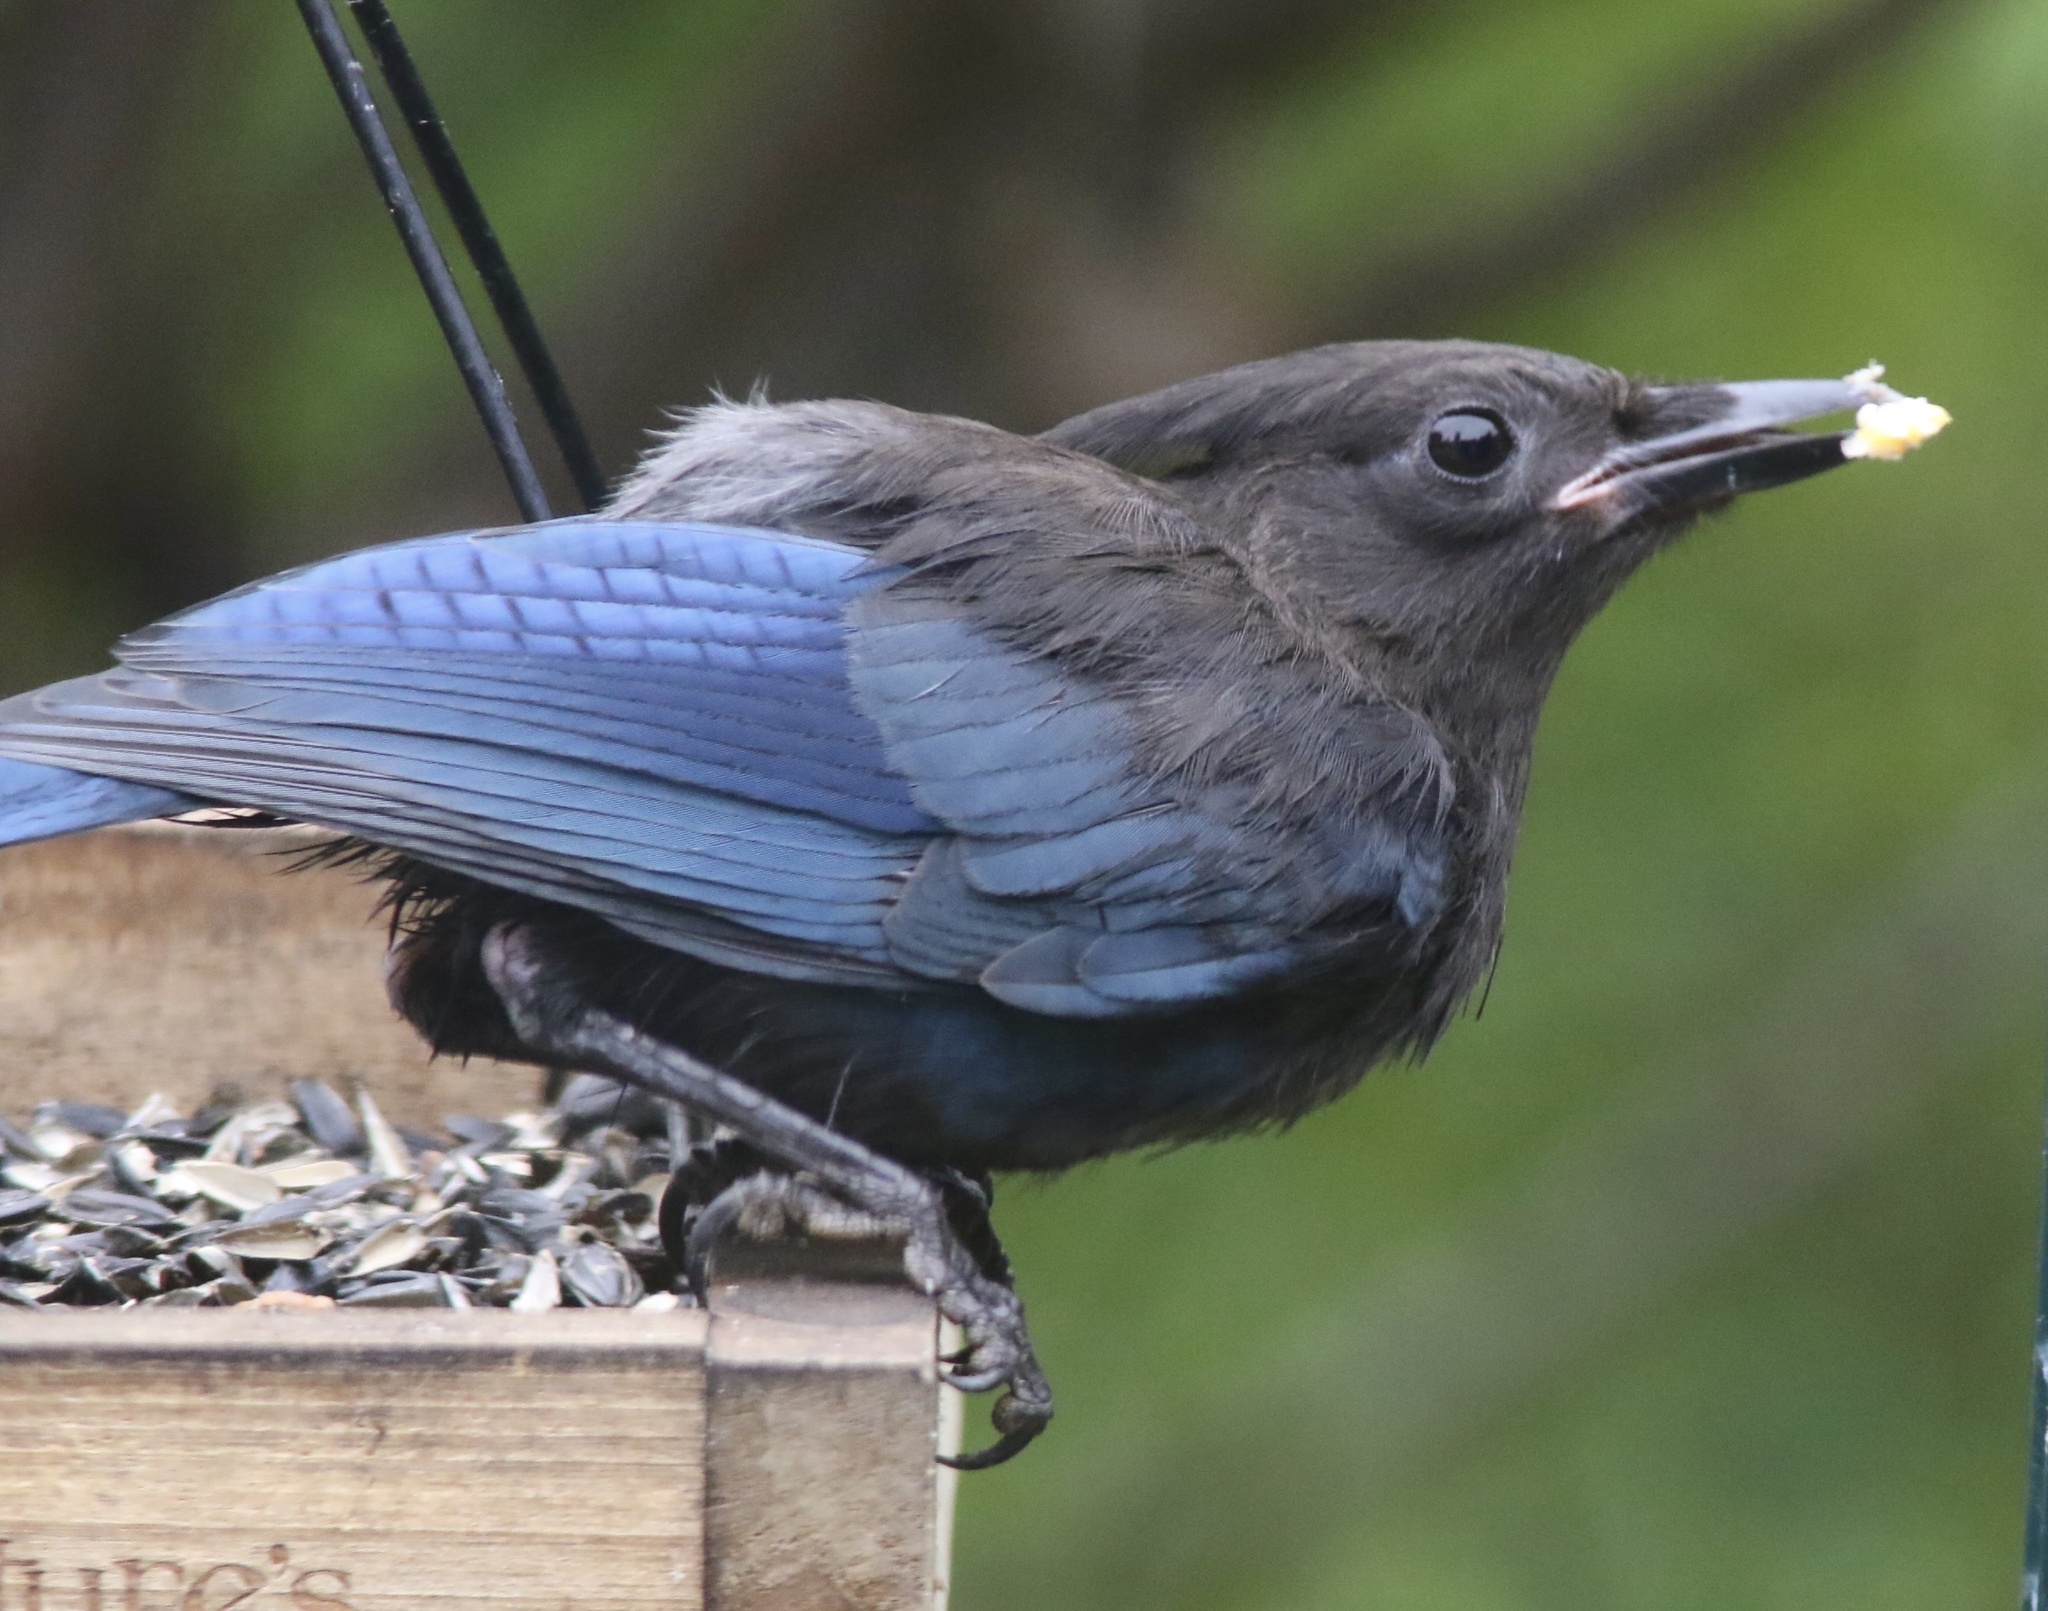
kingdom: Animalia
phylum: Chordata
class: Aves
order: Passeriformes
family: Corvidae
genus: Cyanocitta
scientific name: Cyanocitta stelleri
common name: Steller's jay
